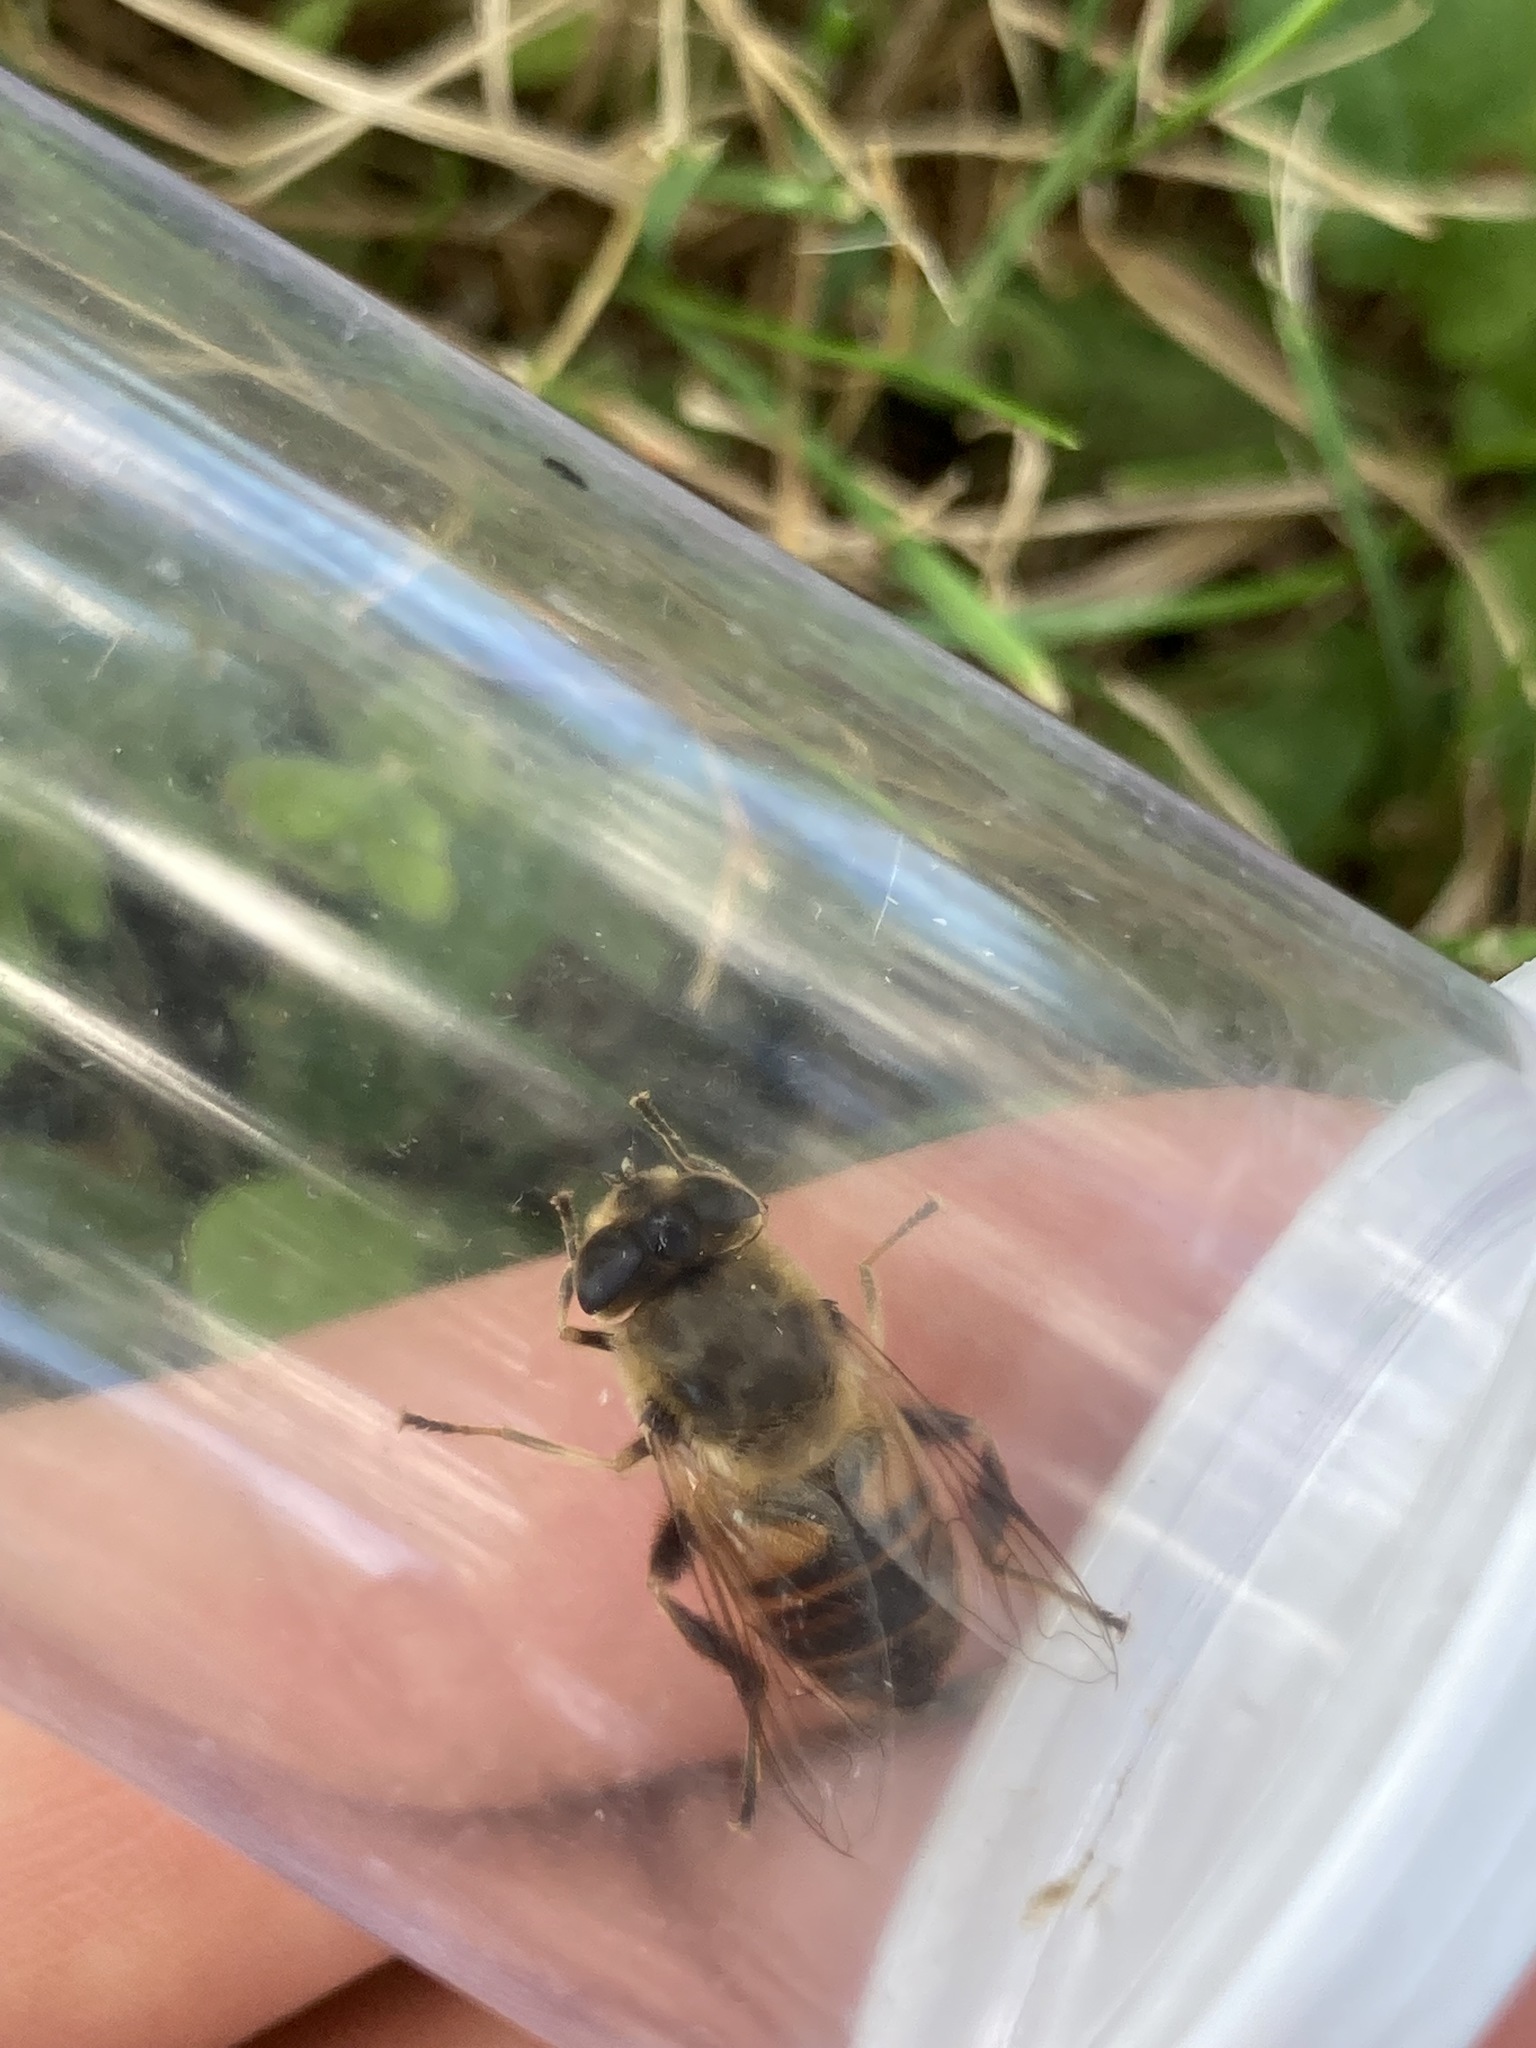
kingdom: Animalia
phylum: Arthropoda
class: Insecta
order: Diptera
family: Syrphidae
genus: Eristalis
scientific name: Eristalis tenax
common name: Drone fly
